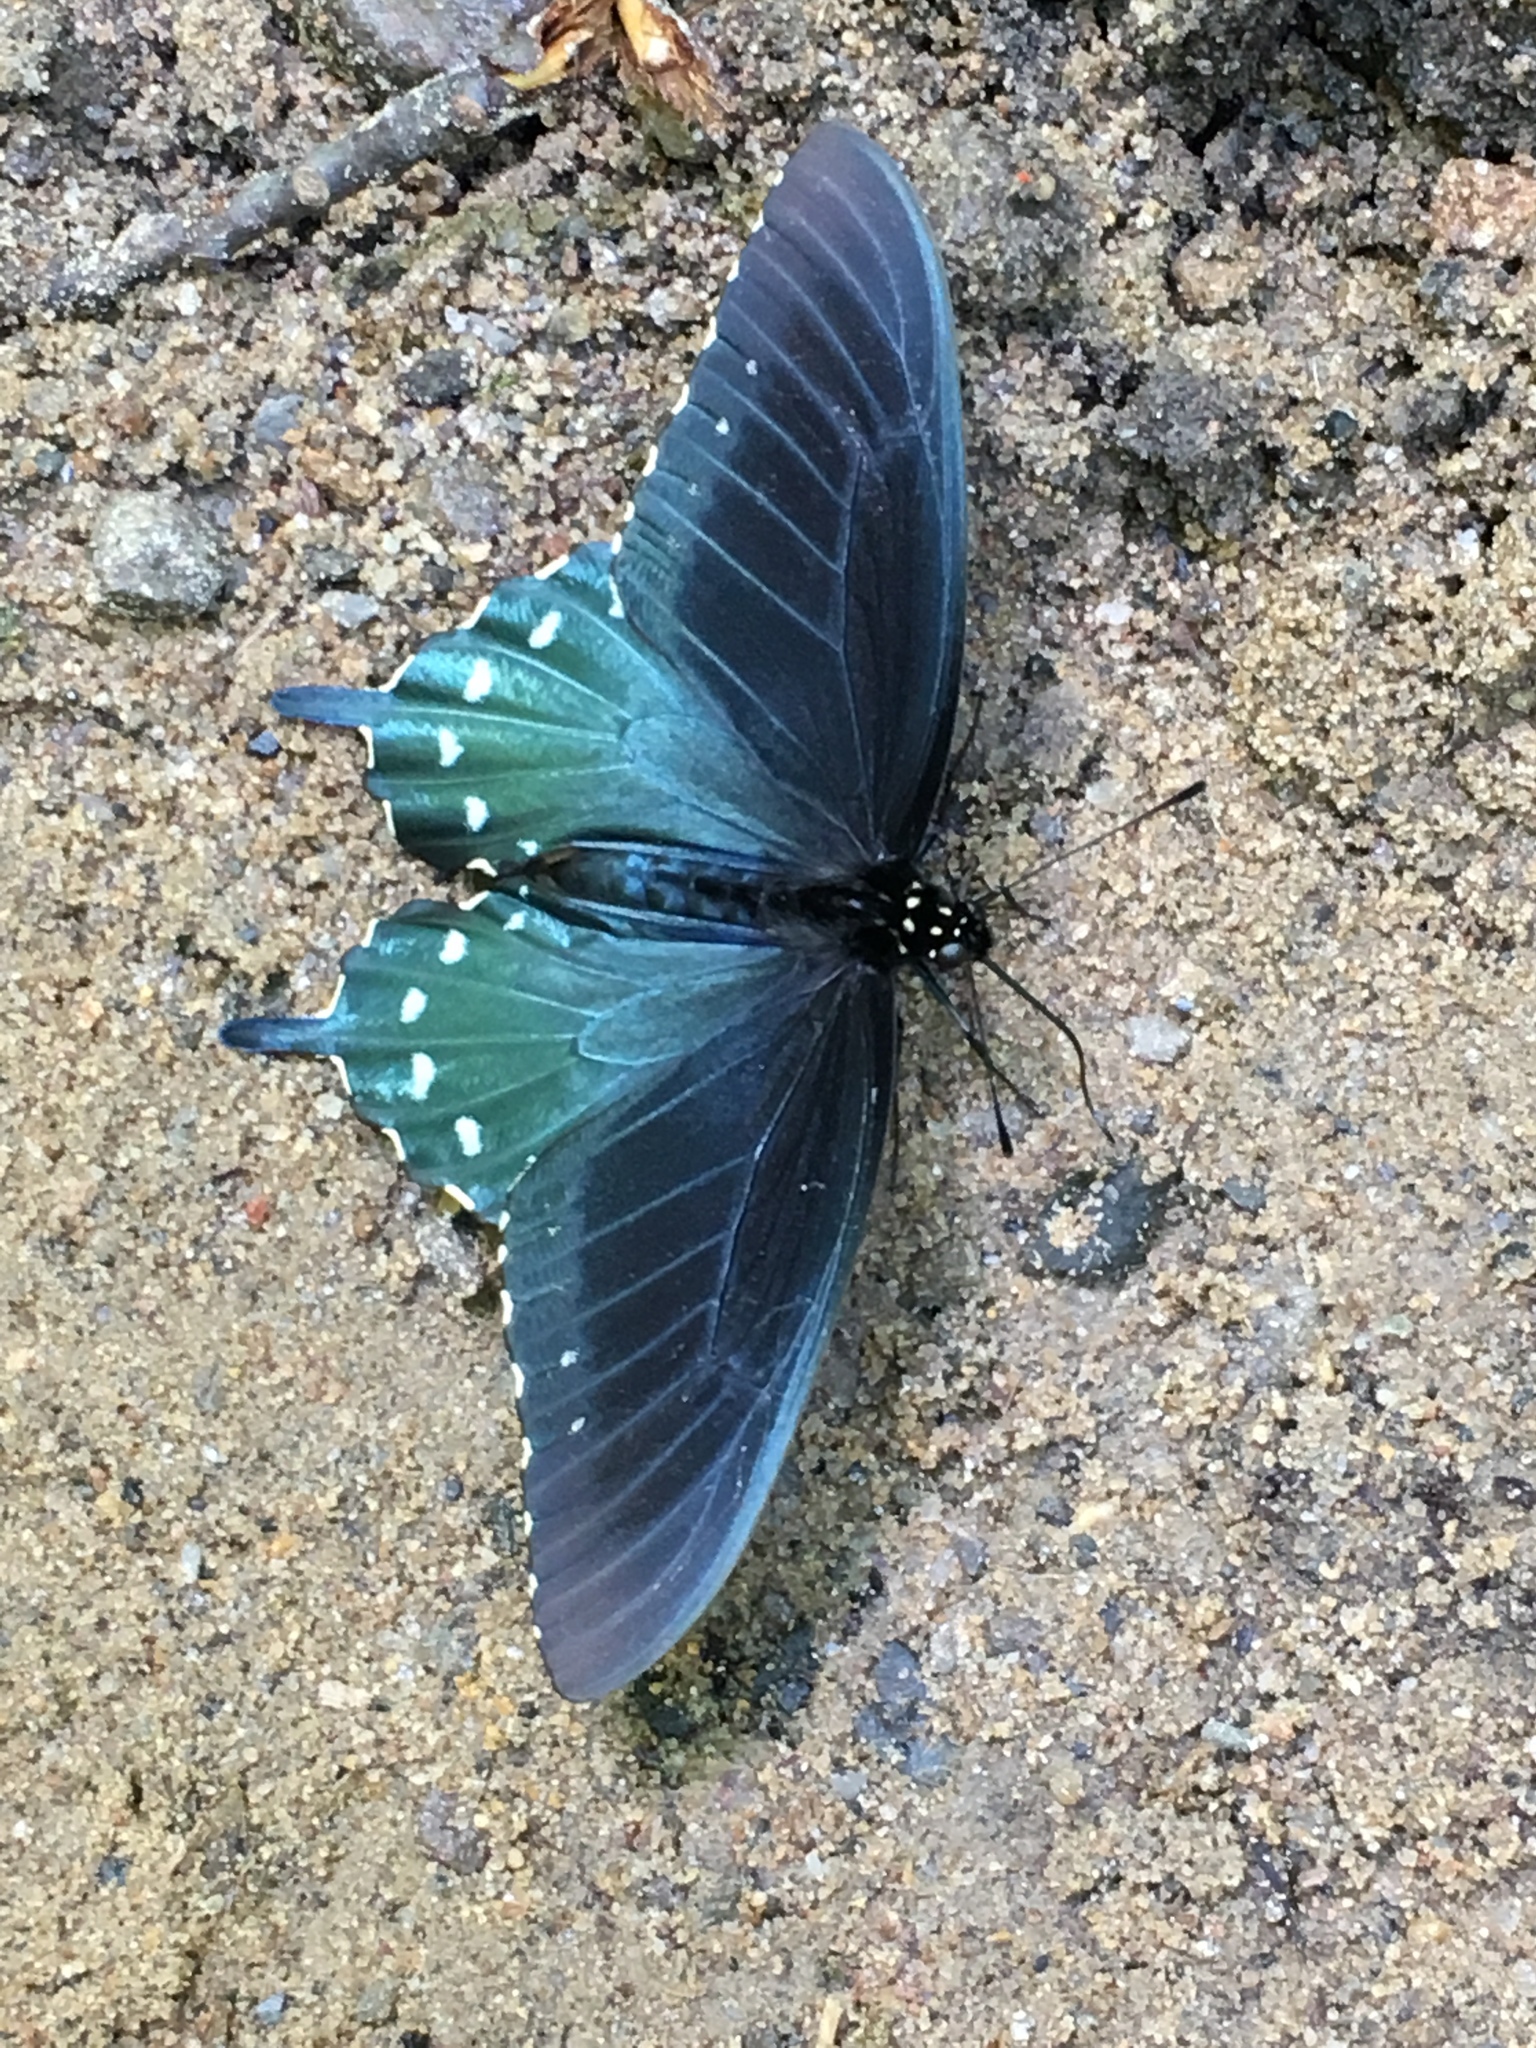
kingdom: Animalia
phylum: Arthropoda
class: Insecta
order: Lepidoptera
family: Papilionidae
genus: Battus
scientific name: Battus philenor
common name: Pipevine swallowtail
